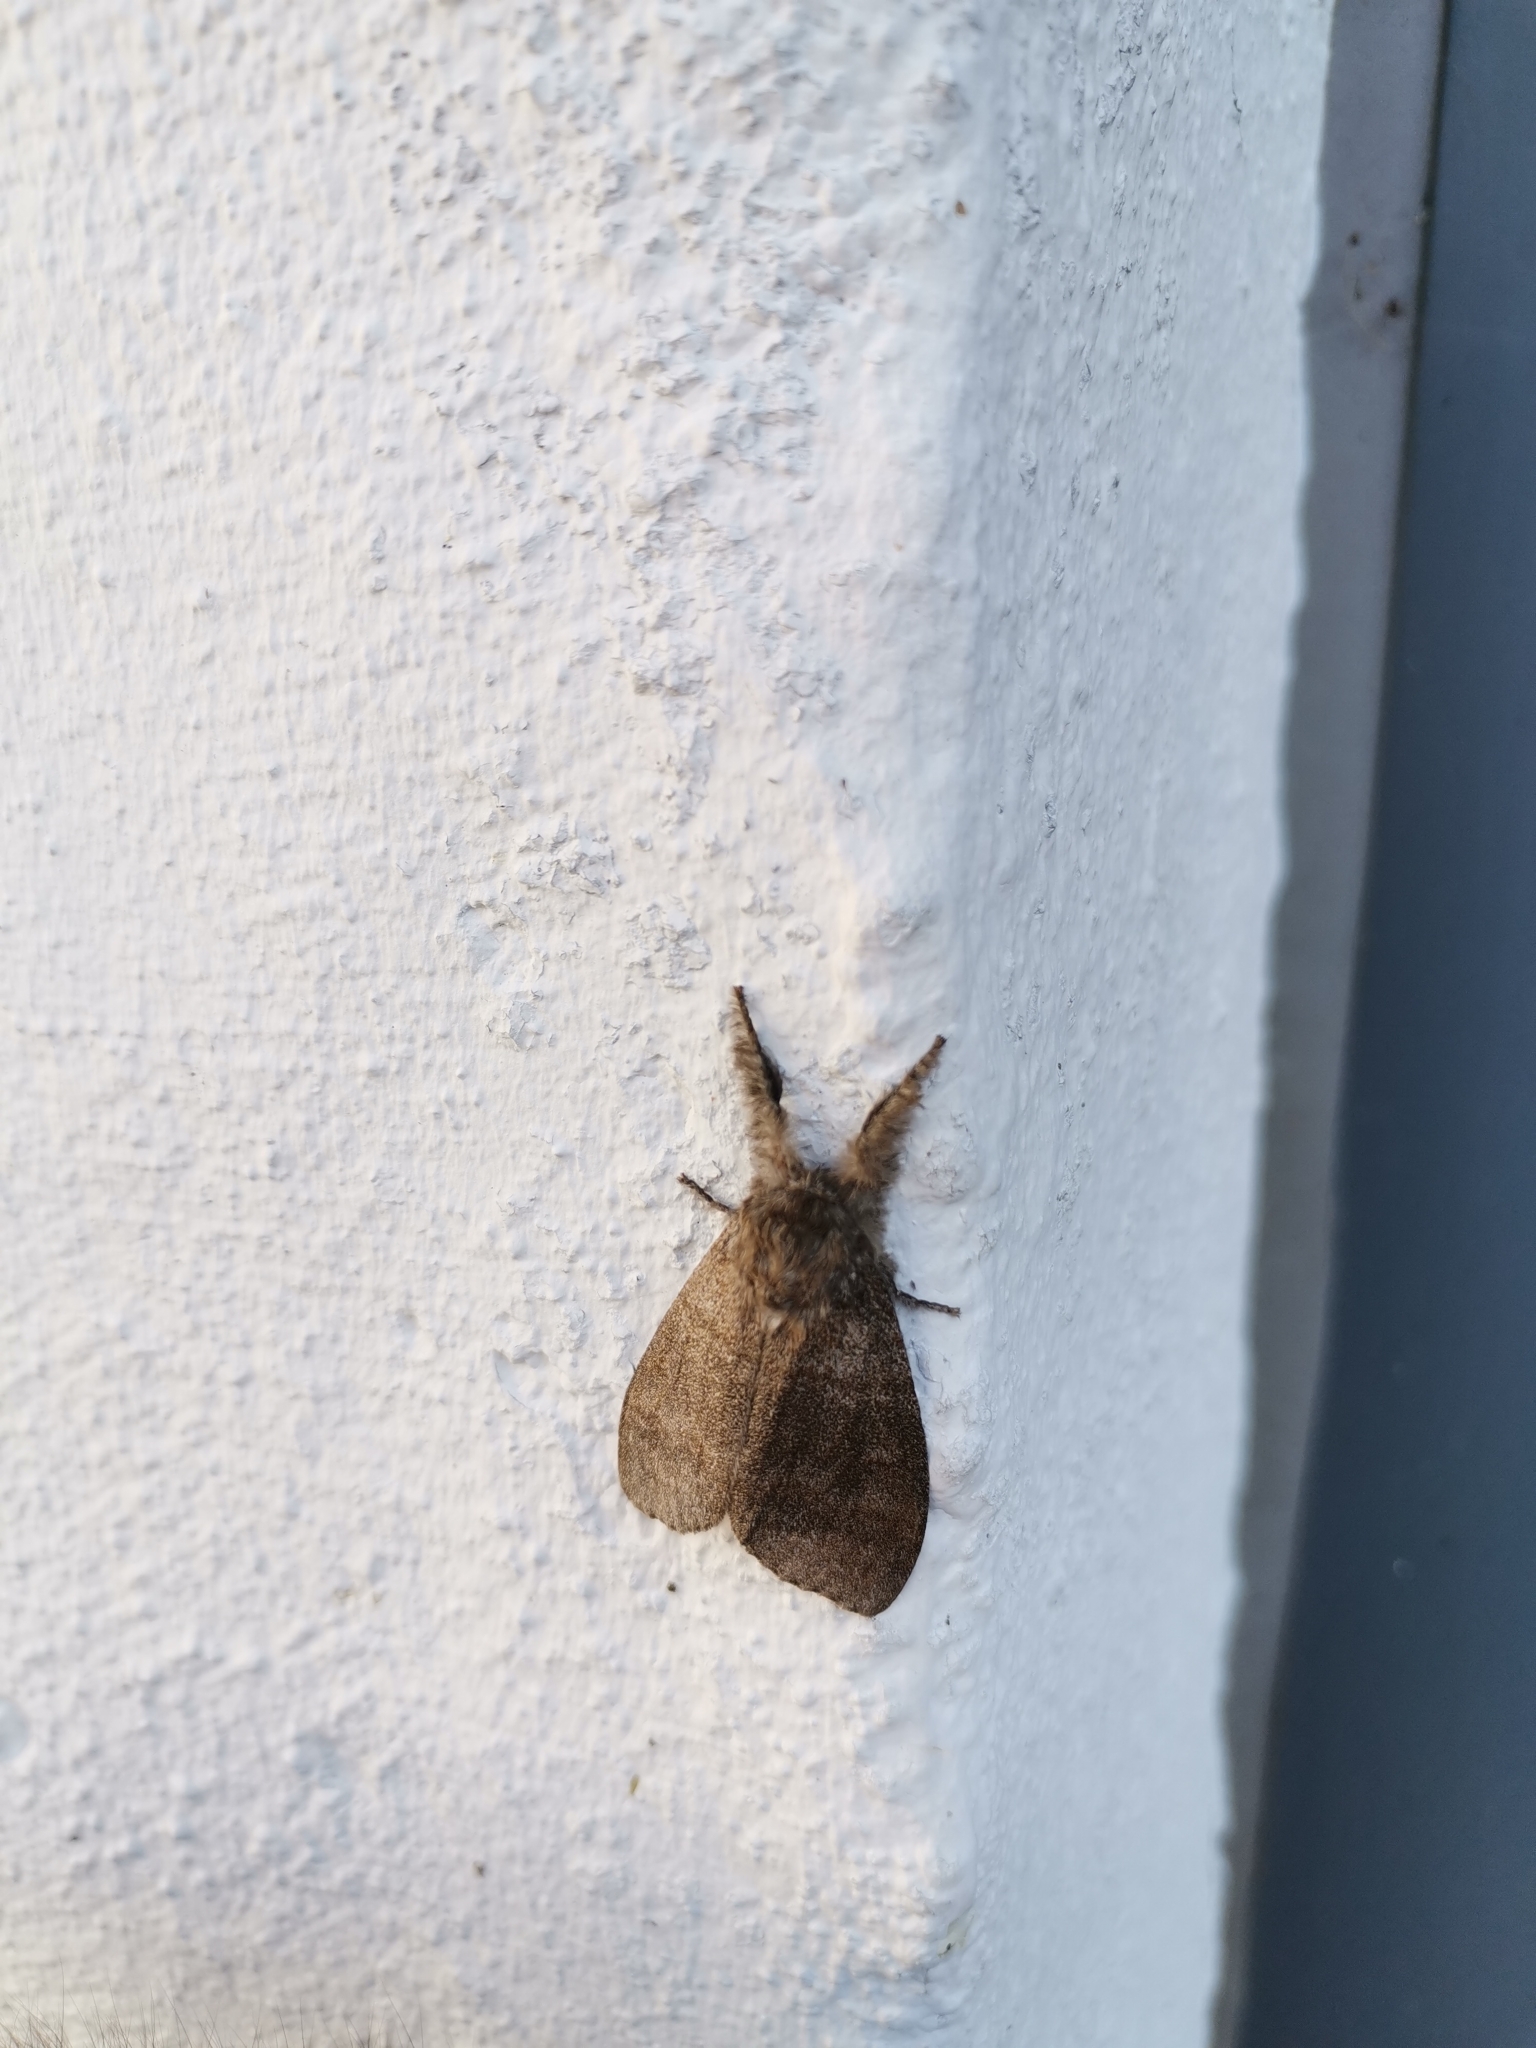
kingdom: Animalia
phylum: Arthropoda
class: Insecta
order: Lepidoptera
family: Erebidae
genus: Calliteara
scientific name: Calliteara pudibunda
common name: Pale tussock
